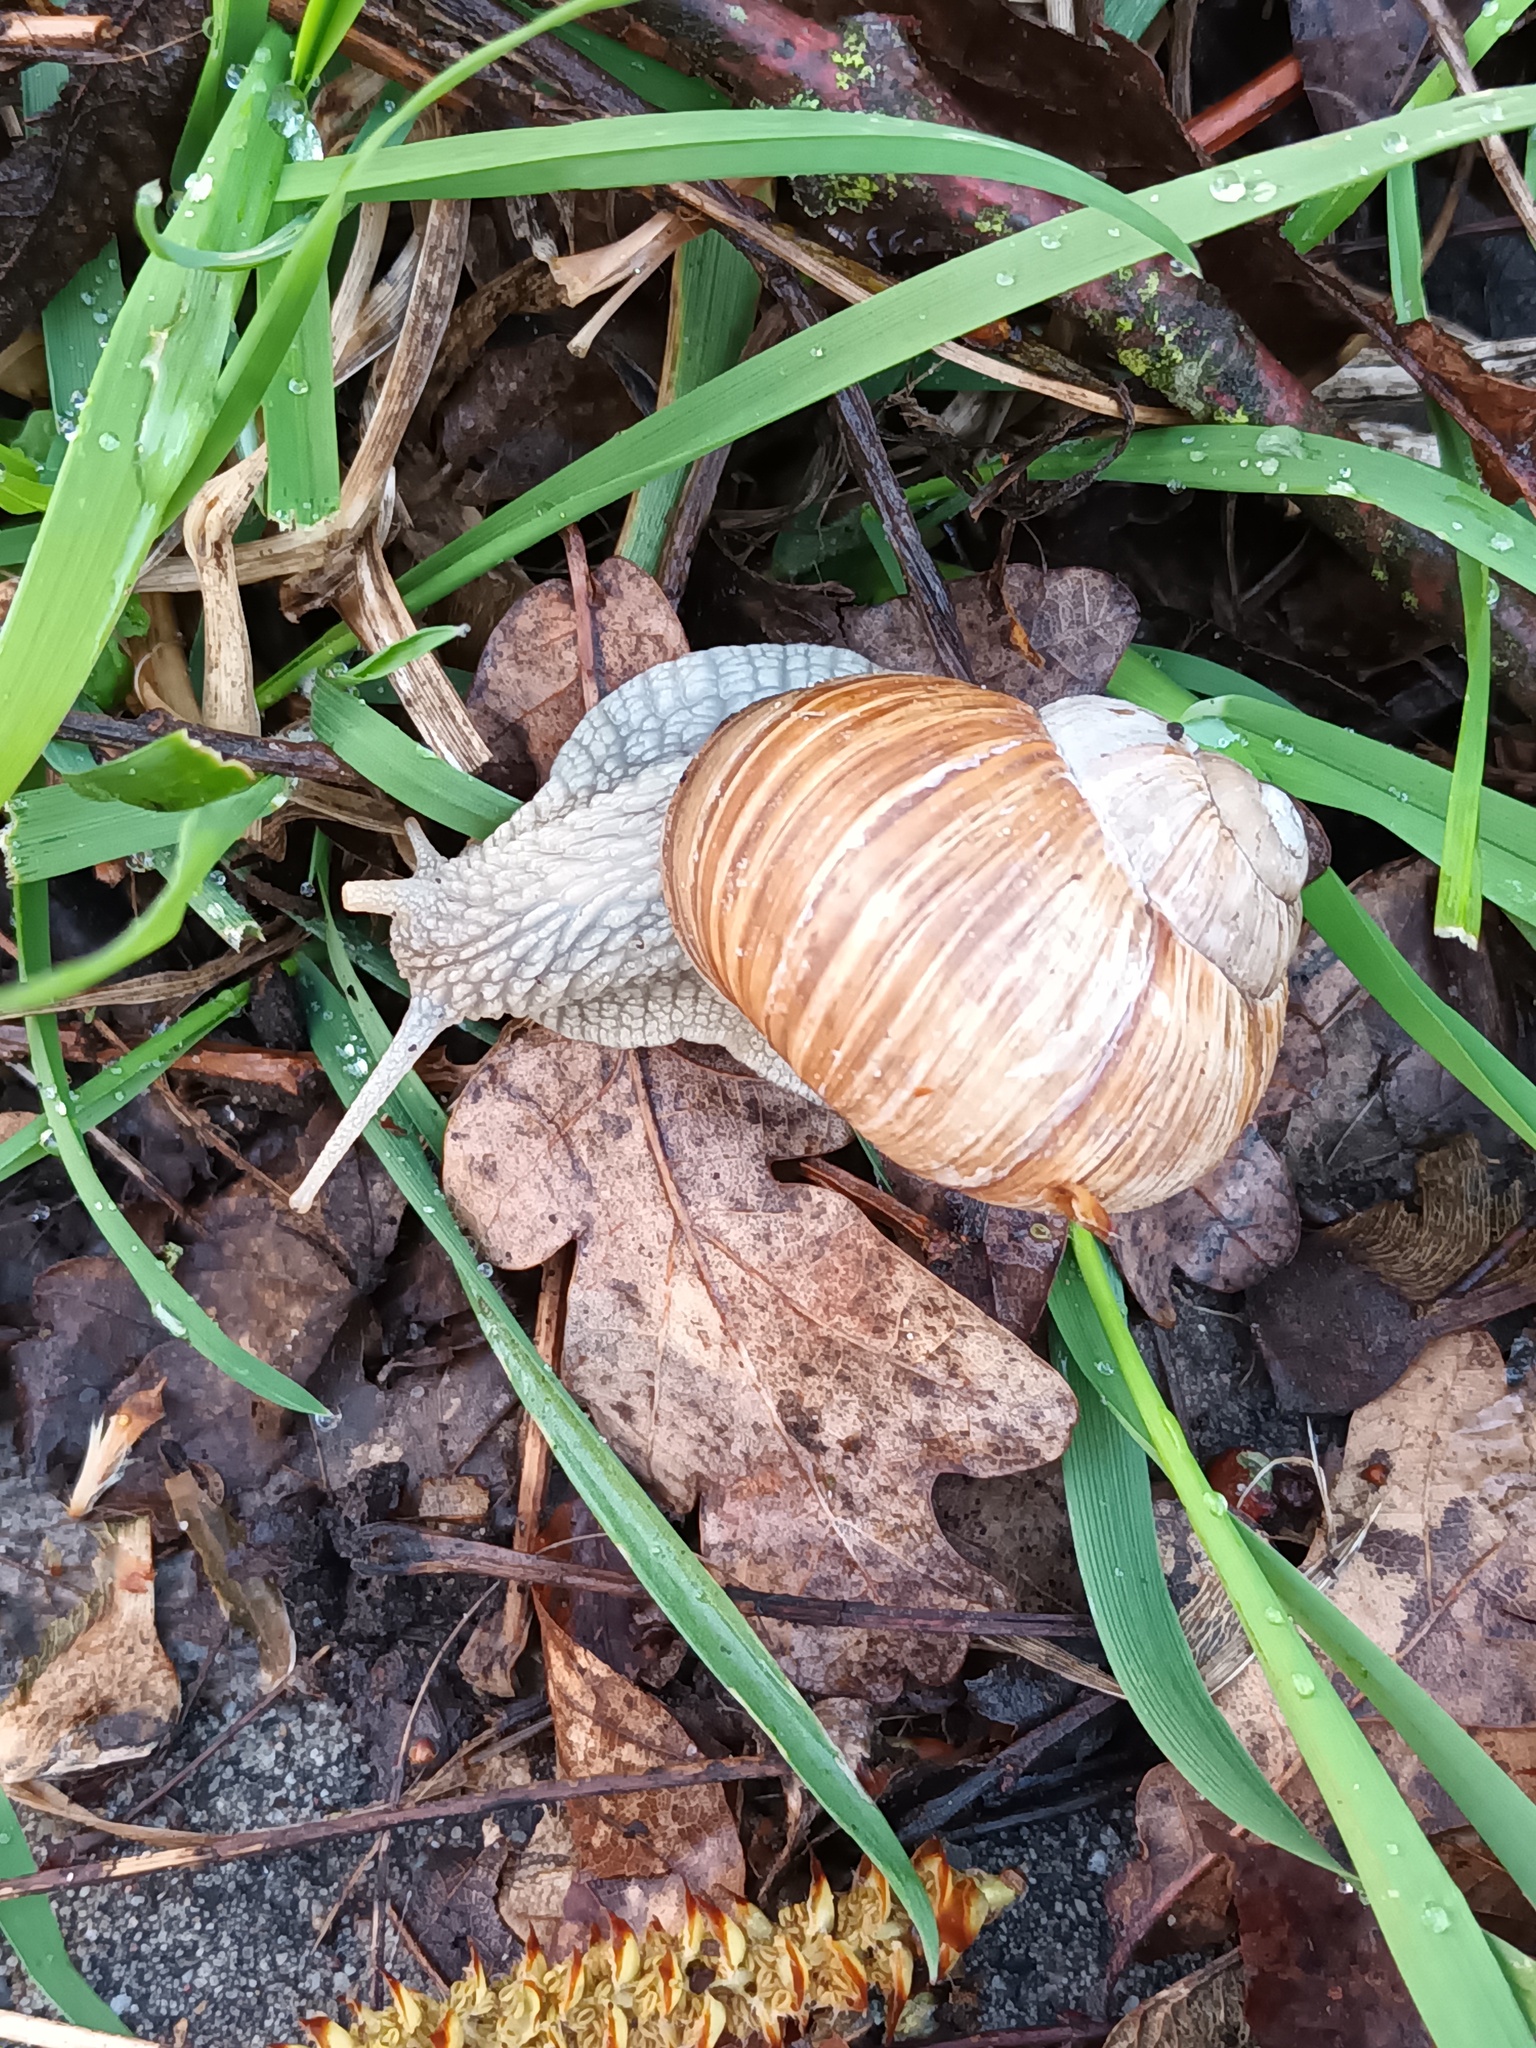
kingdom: Animalia
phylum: Mollusca
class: Gastropoda
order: Stylommatophora
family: Helicidae
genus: Helix
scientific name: Helix pomatia
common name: Roman snail
